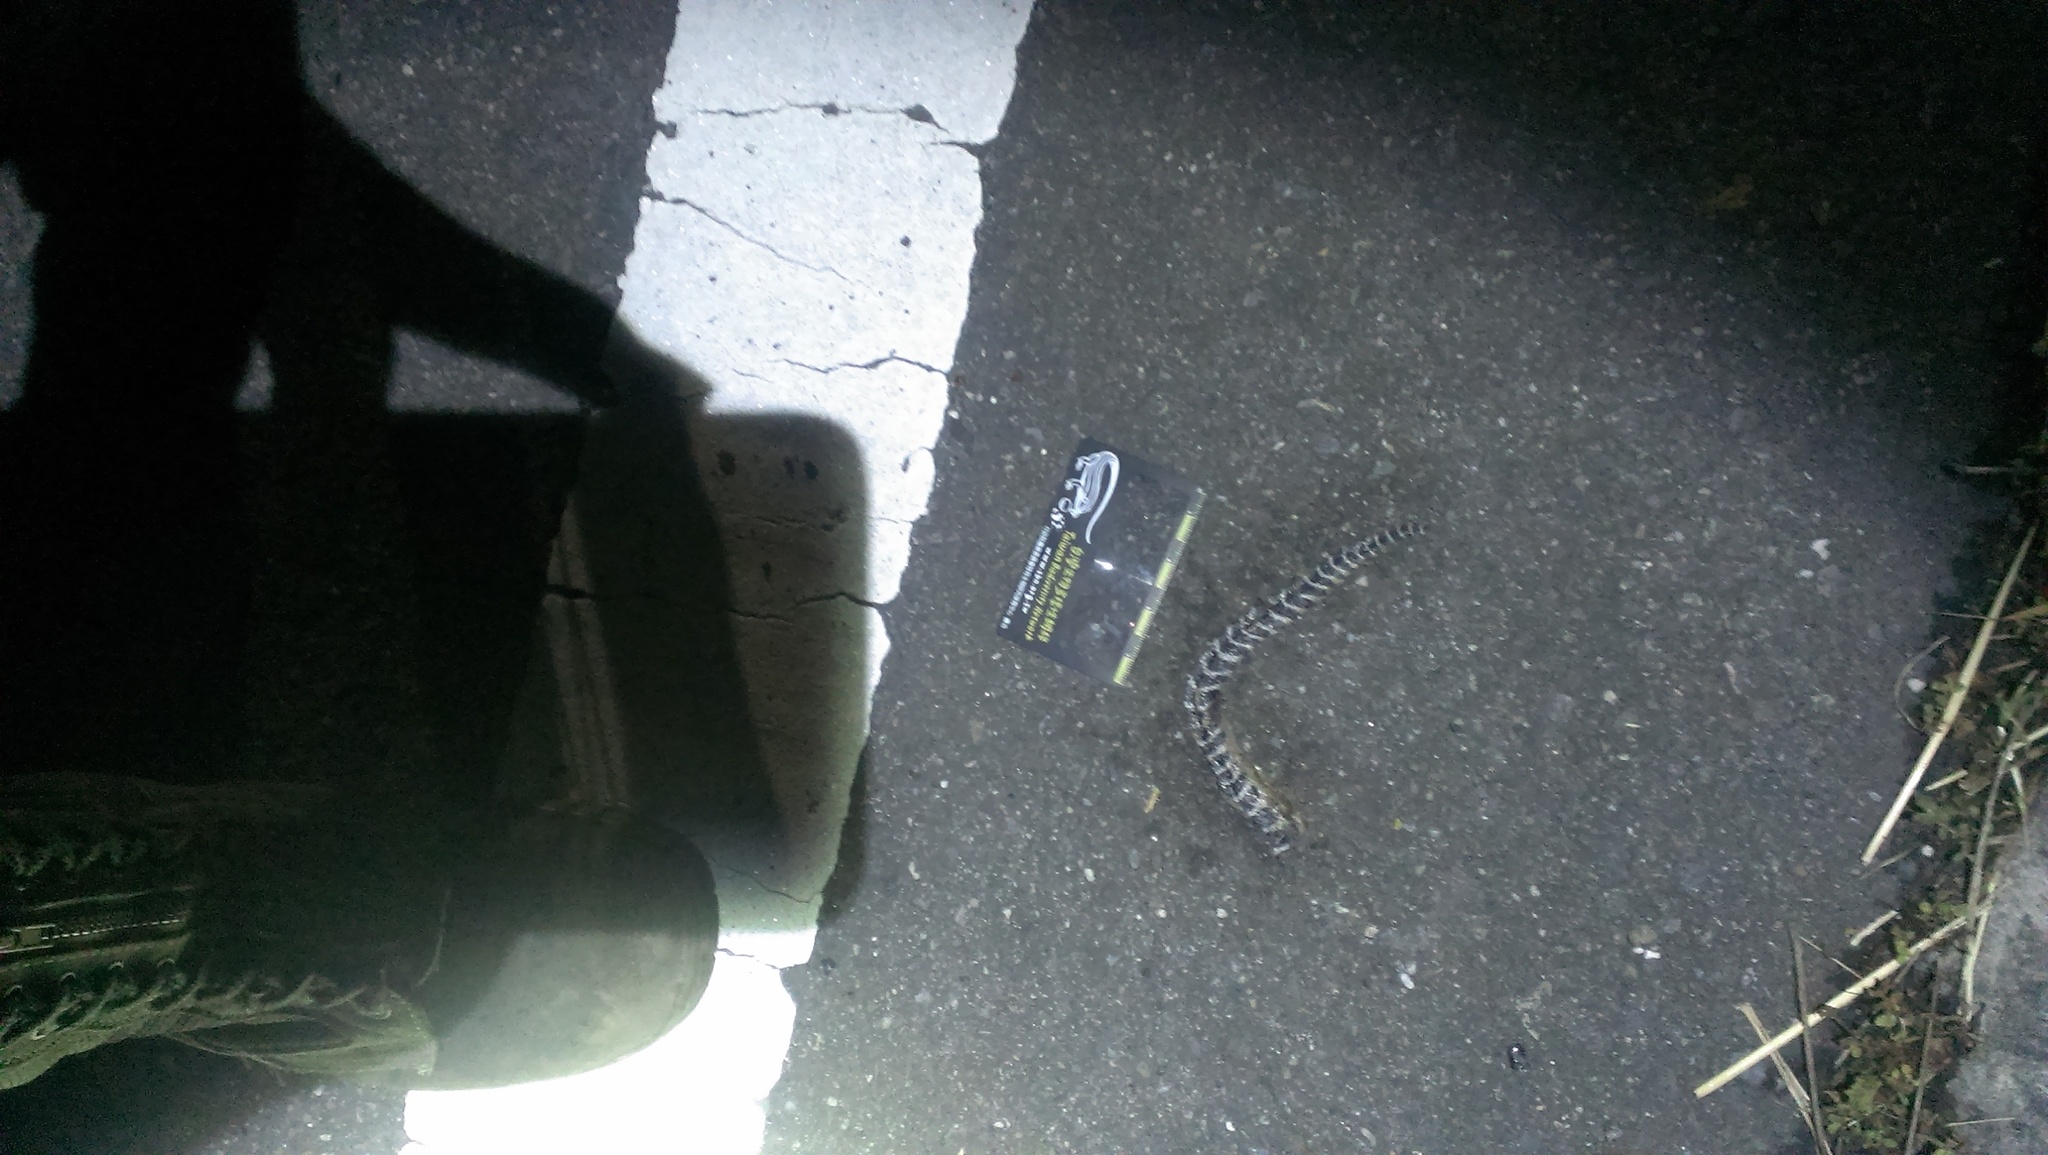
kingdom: Animalia
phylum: Chordata
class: Squamata
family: Elapidae
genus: Bungarus
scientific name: Bungarus multicinctus
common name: Many-banded krait
